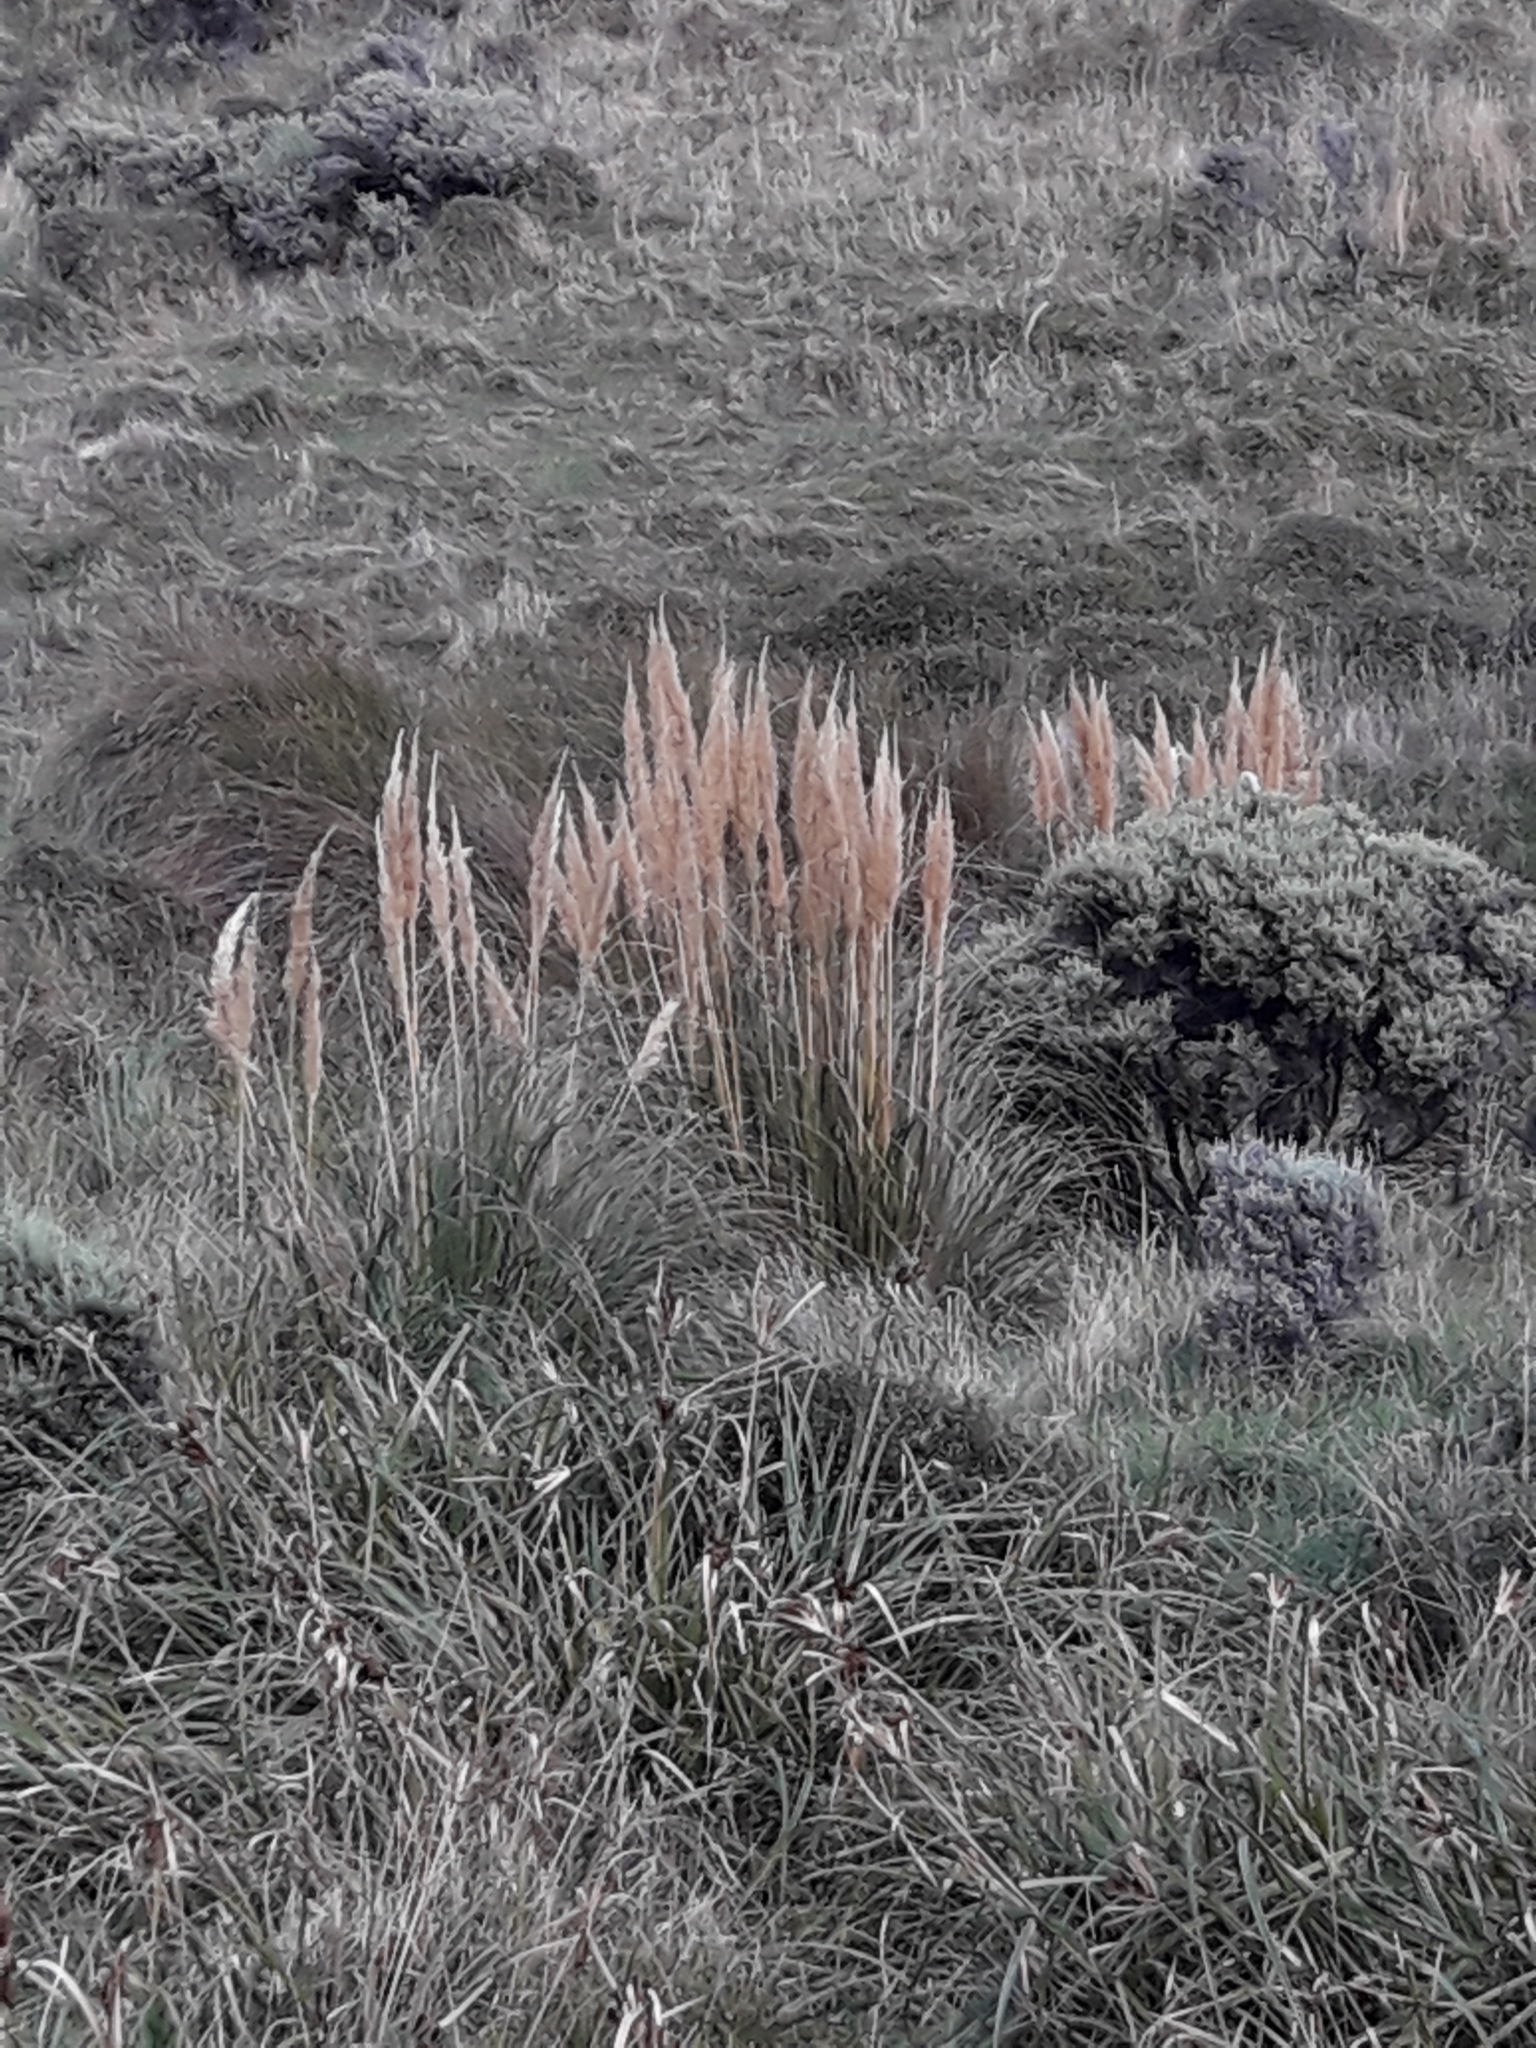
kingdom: Plantae
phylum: Tracheophyta
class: Liliopsida
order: Poales
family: Poaceae
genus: Cortaderia
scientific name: Cortaderia selloana
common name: Uruguayan pampas grass
